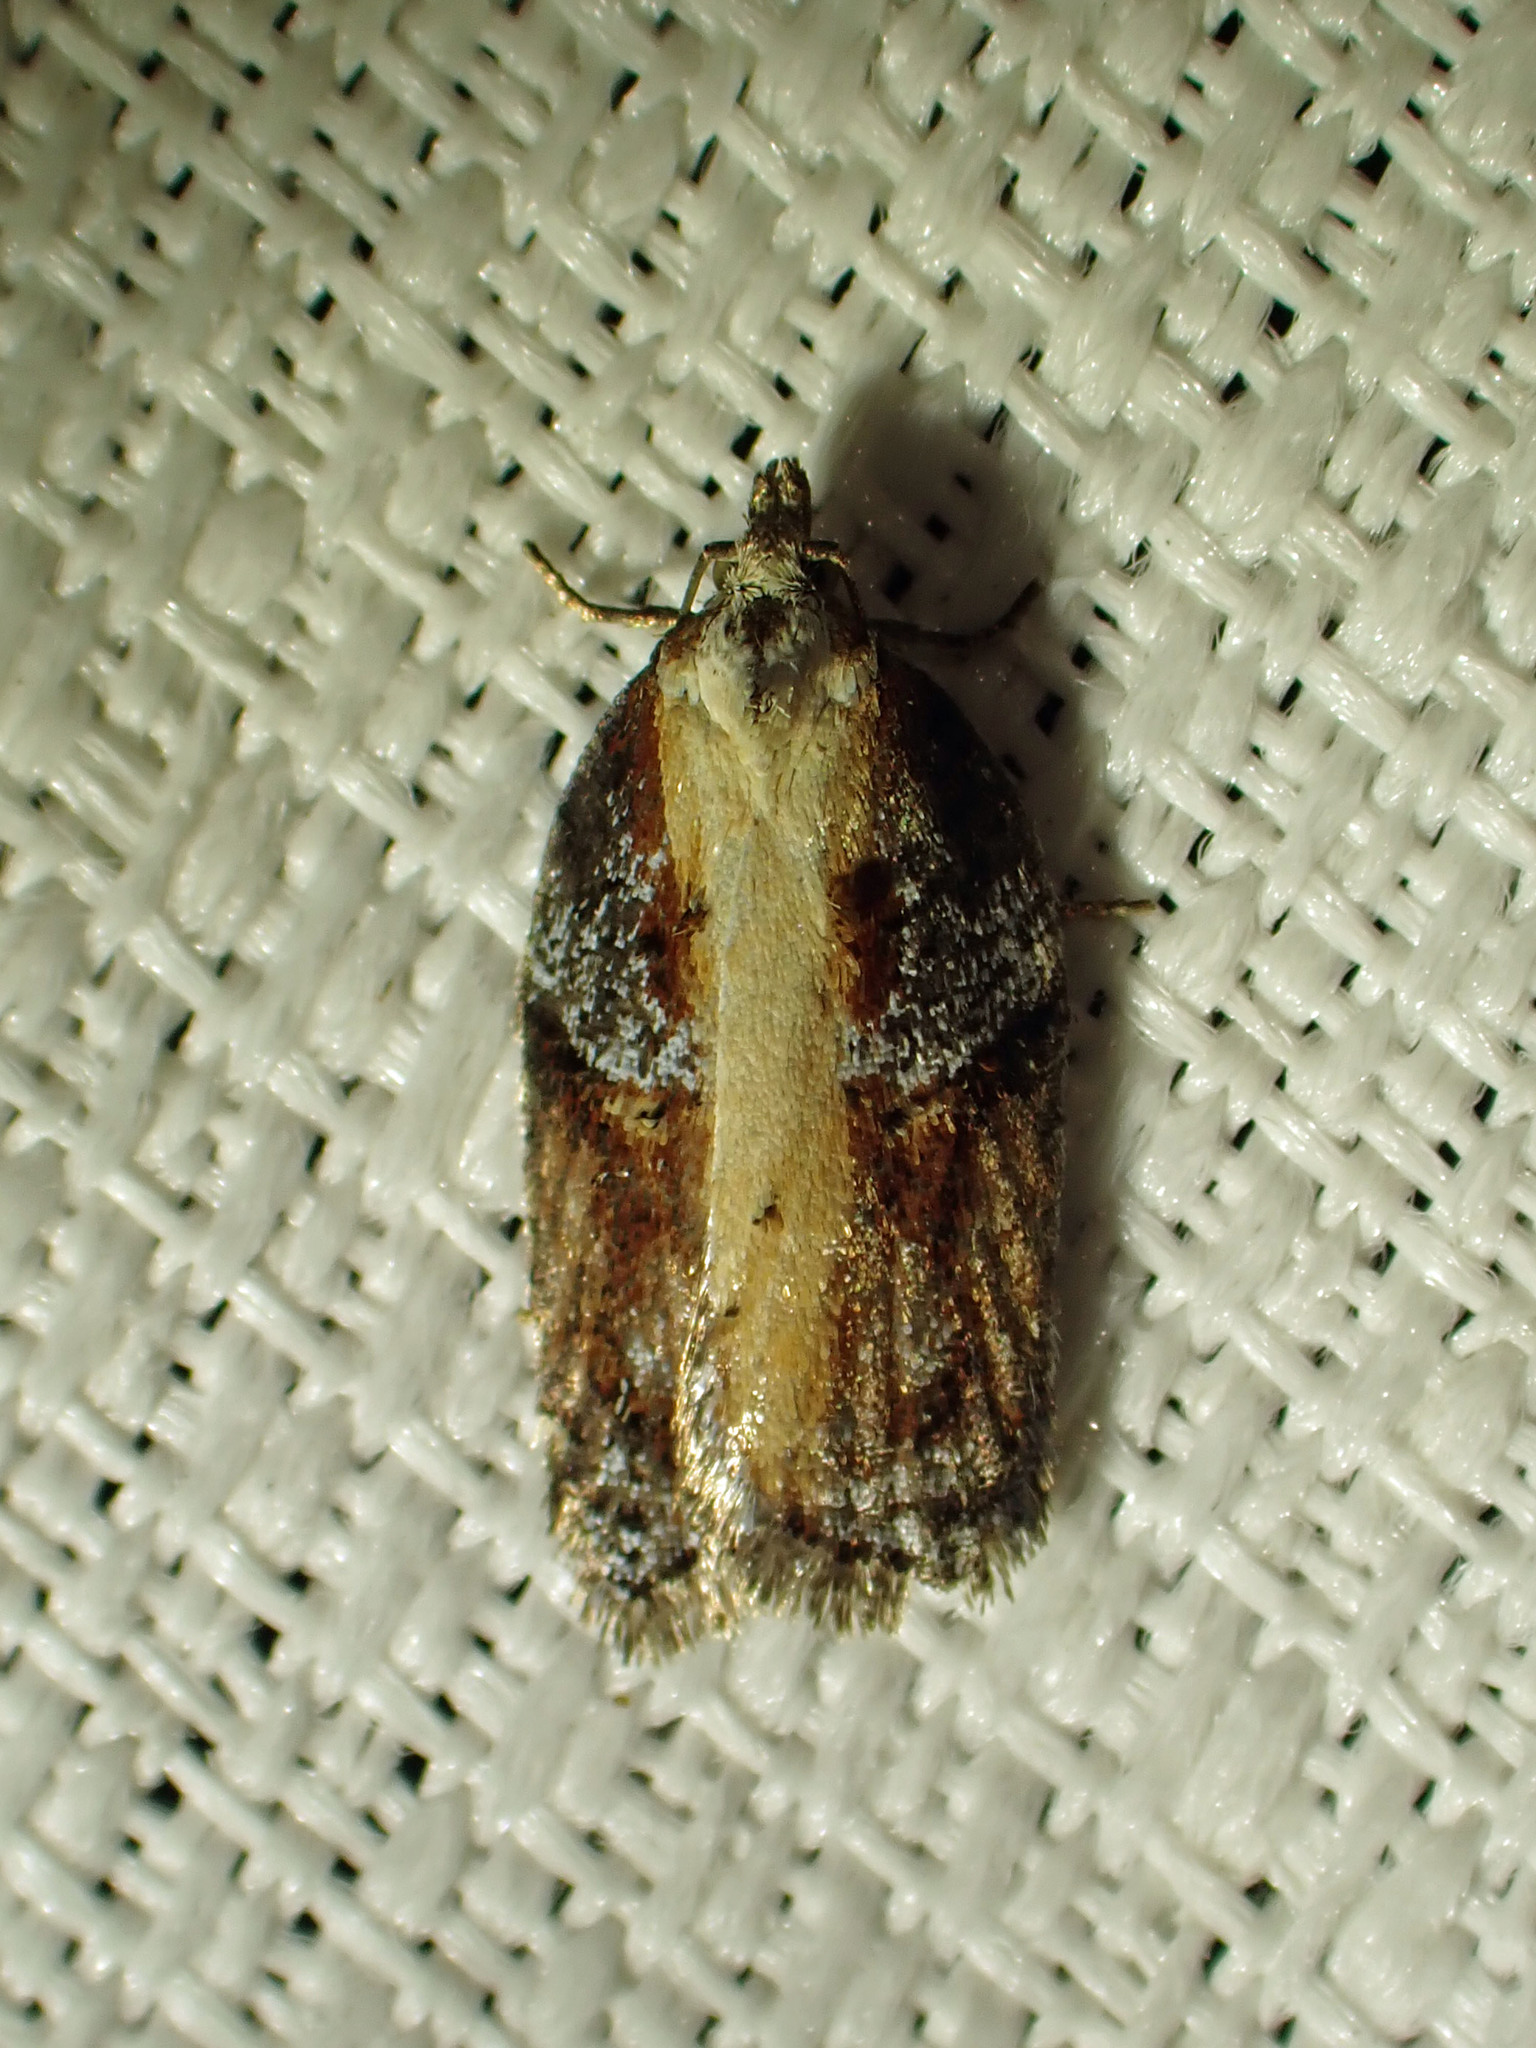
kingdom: Animalia
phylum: Arthropoda
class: Insecta
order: Lepidoptera
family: Tortricidae
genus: Acleris
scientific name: Acleris robinsoniana
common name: Robinson's acleris moth
